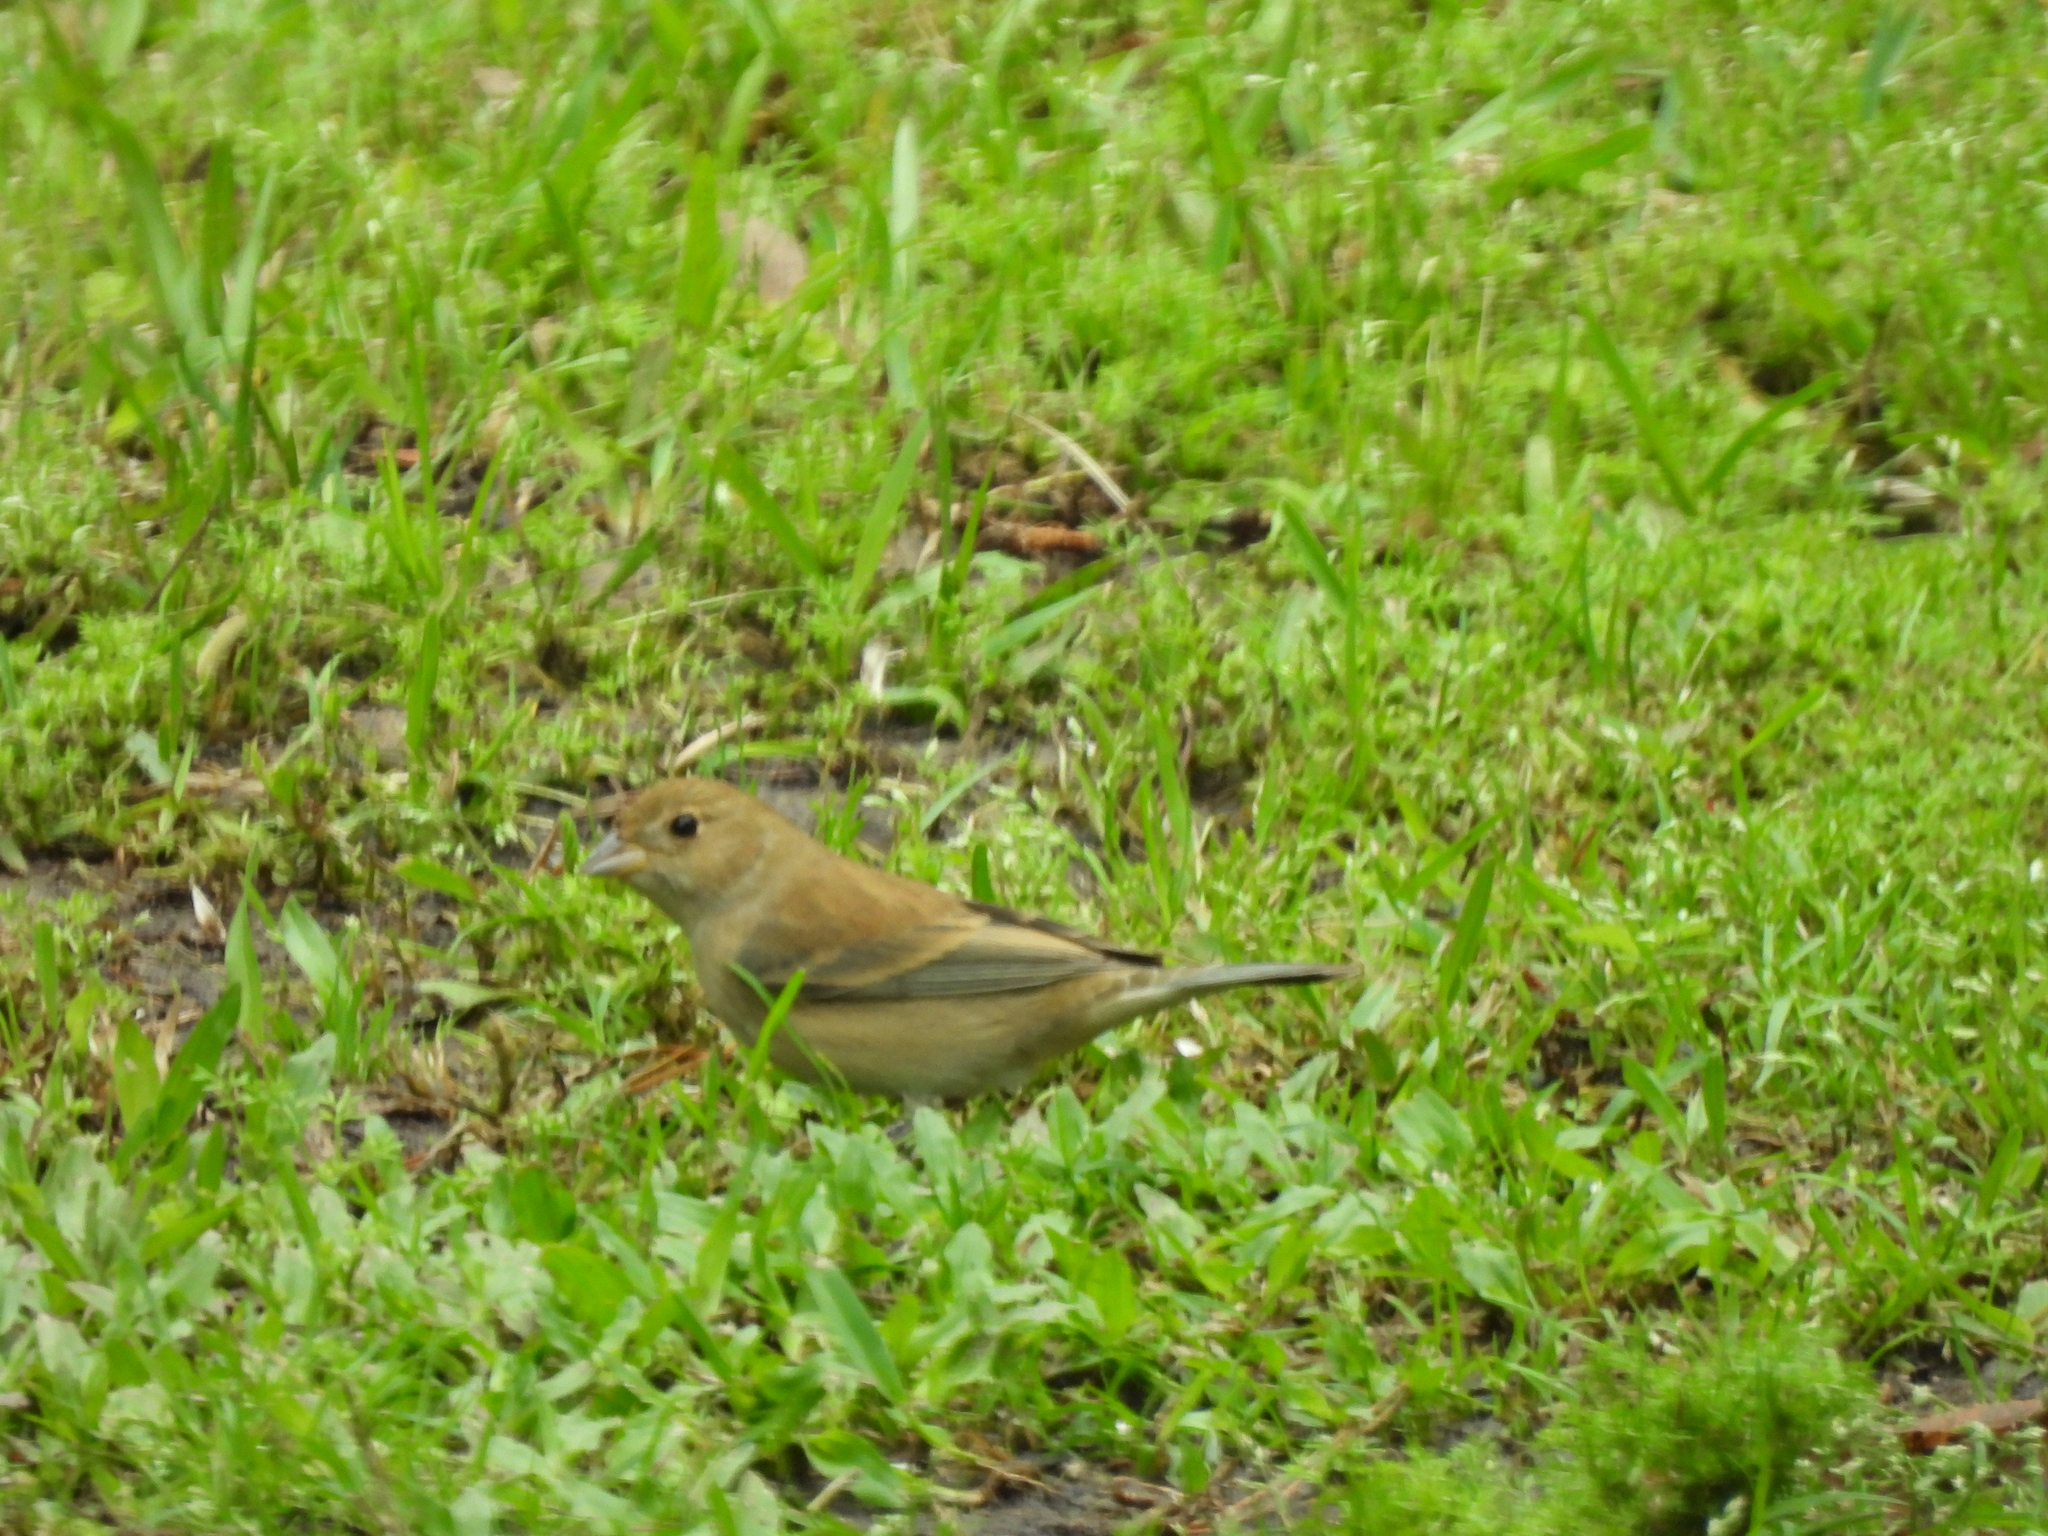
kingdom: Animalia
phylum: Chordata
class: Aves
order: Passeriformes
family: Cardinalidae
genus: Passerina
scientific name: Passerina cyanea
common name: Indigo bunting
